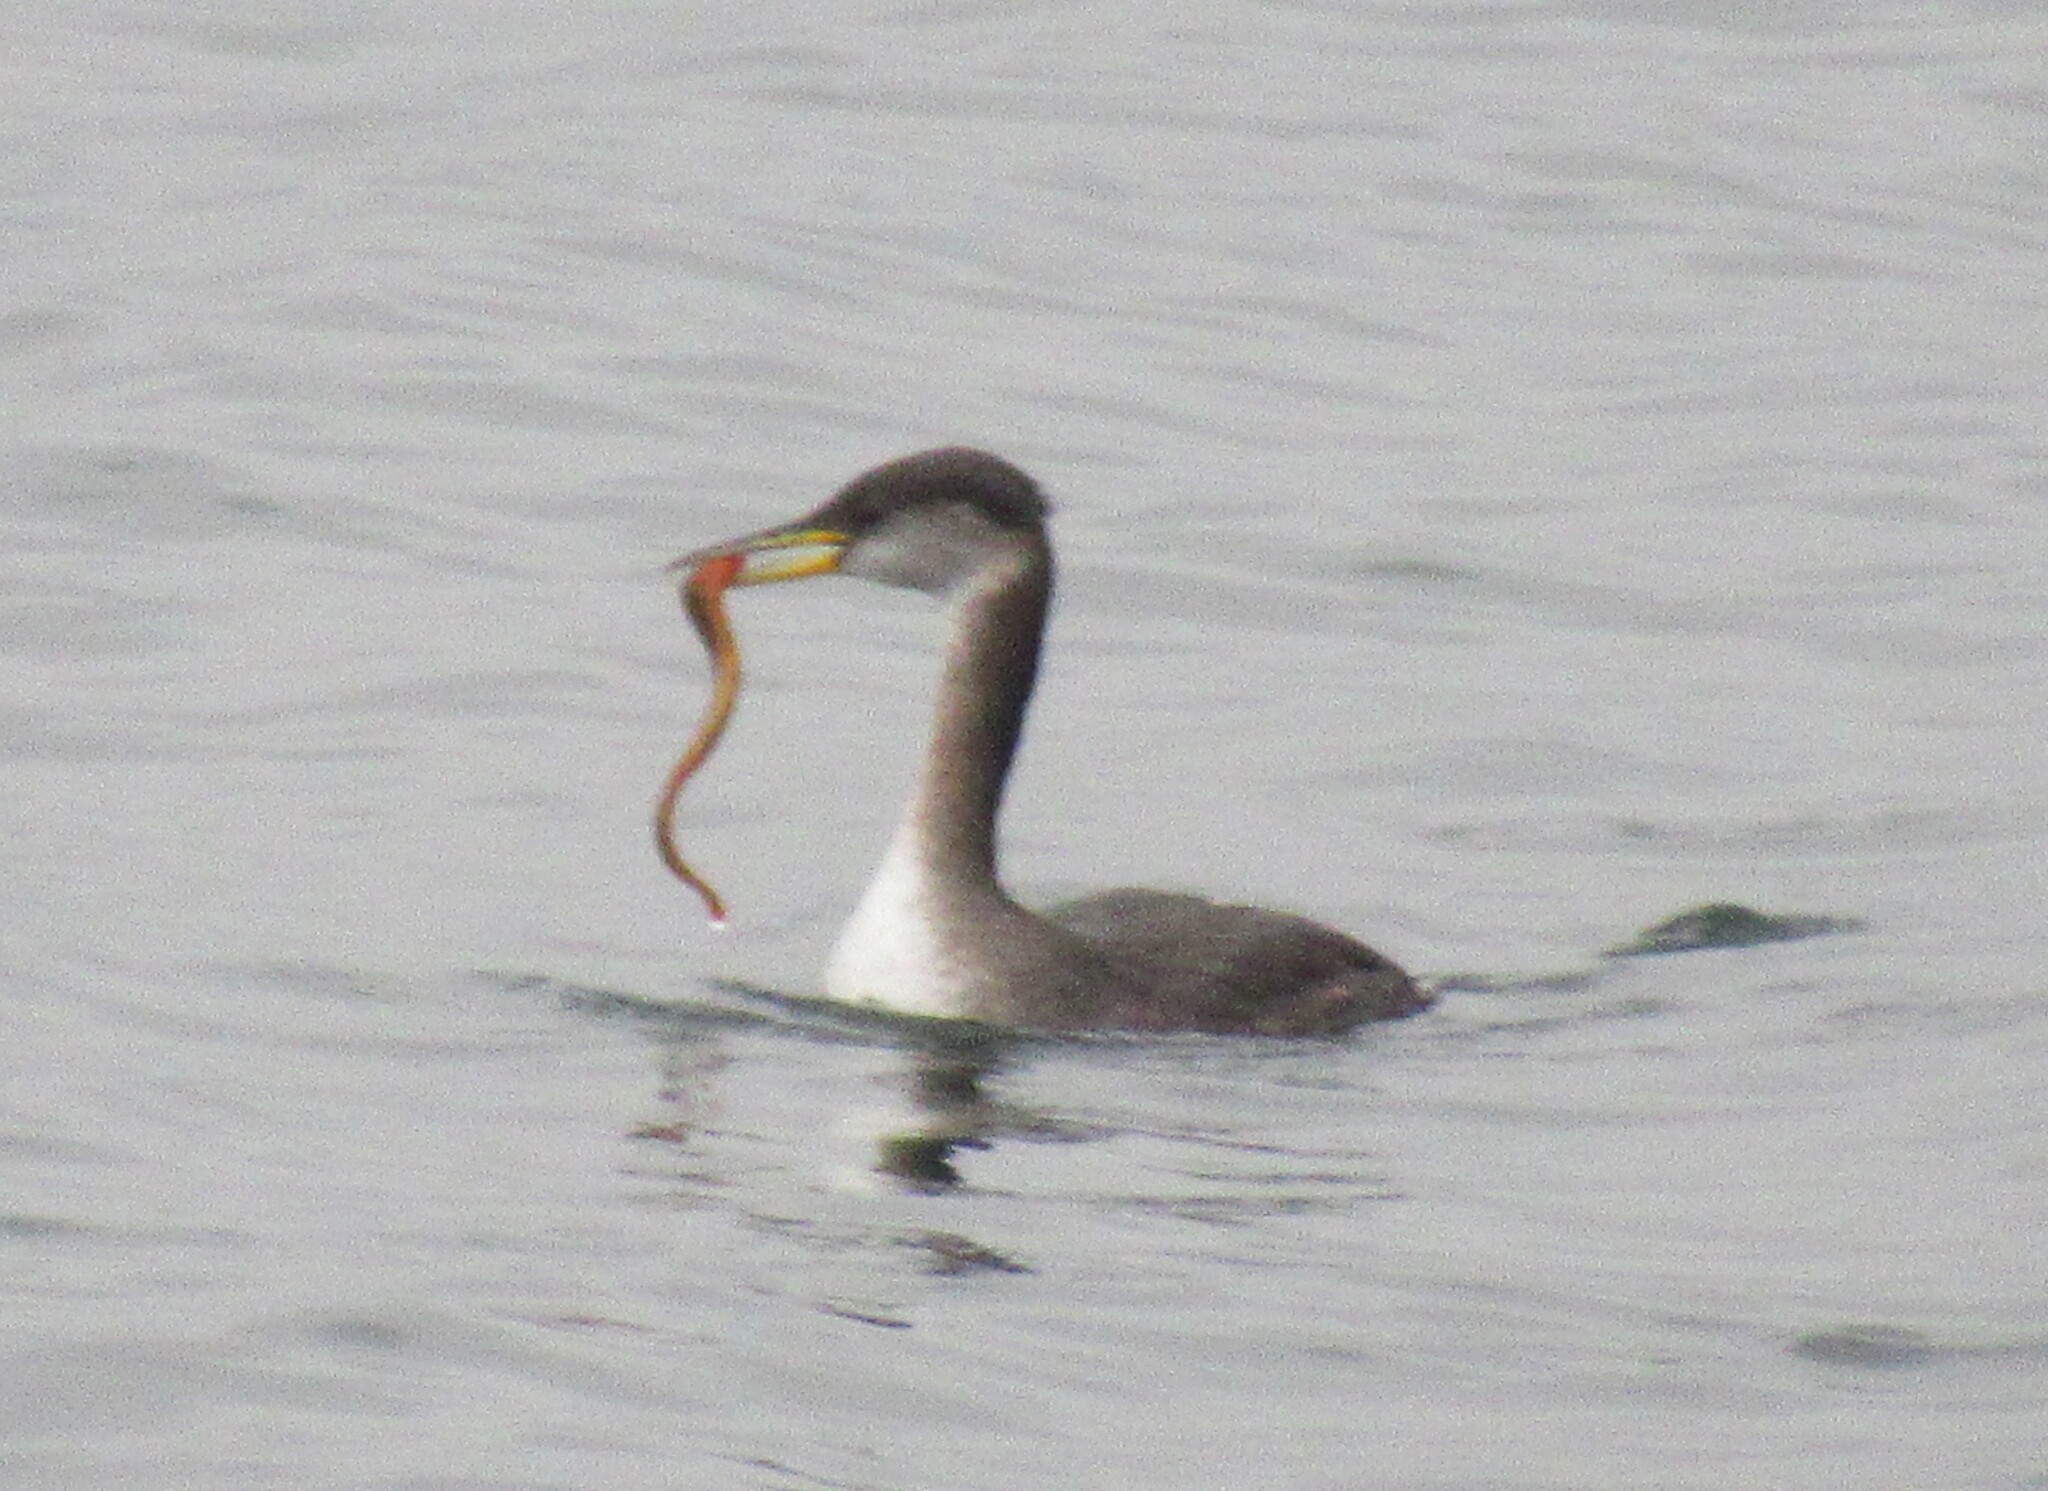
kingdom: Animalia
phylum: Chordata
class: Aves
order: Podicipediformes
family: Podicipedidae
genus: Podiceps
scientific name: Podiceps grisegena
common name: Red-necked grebe
